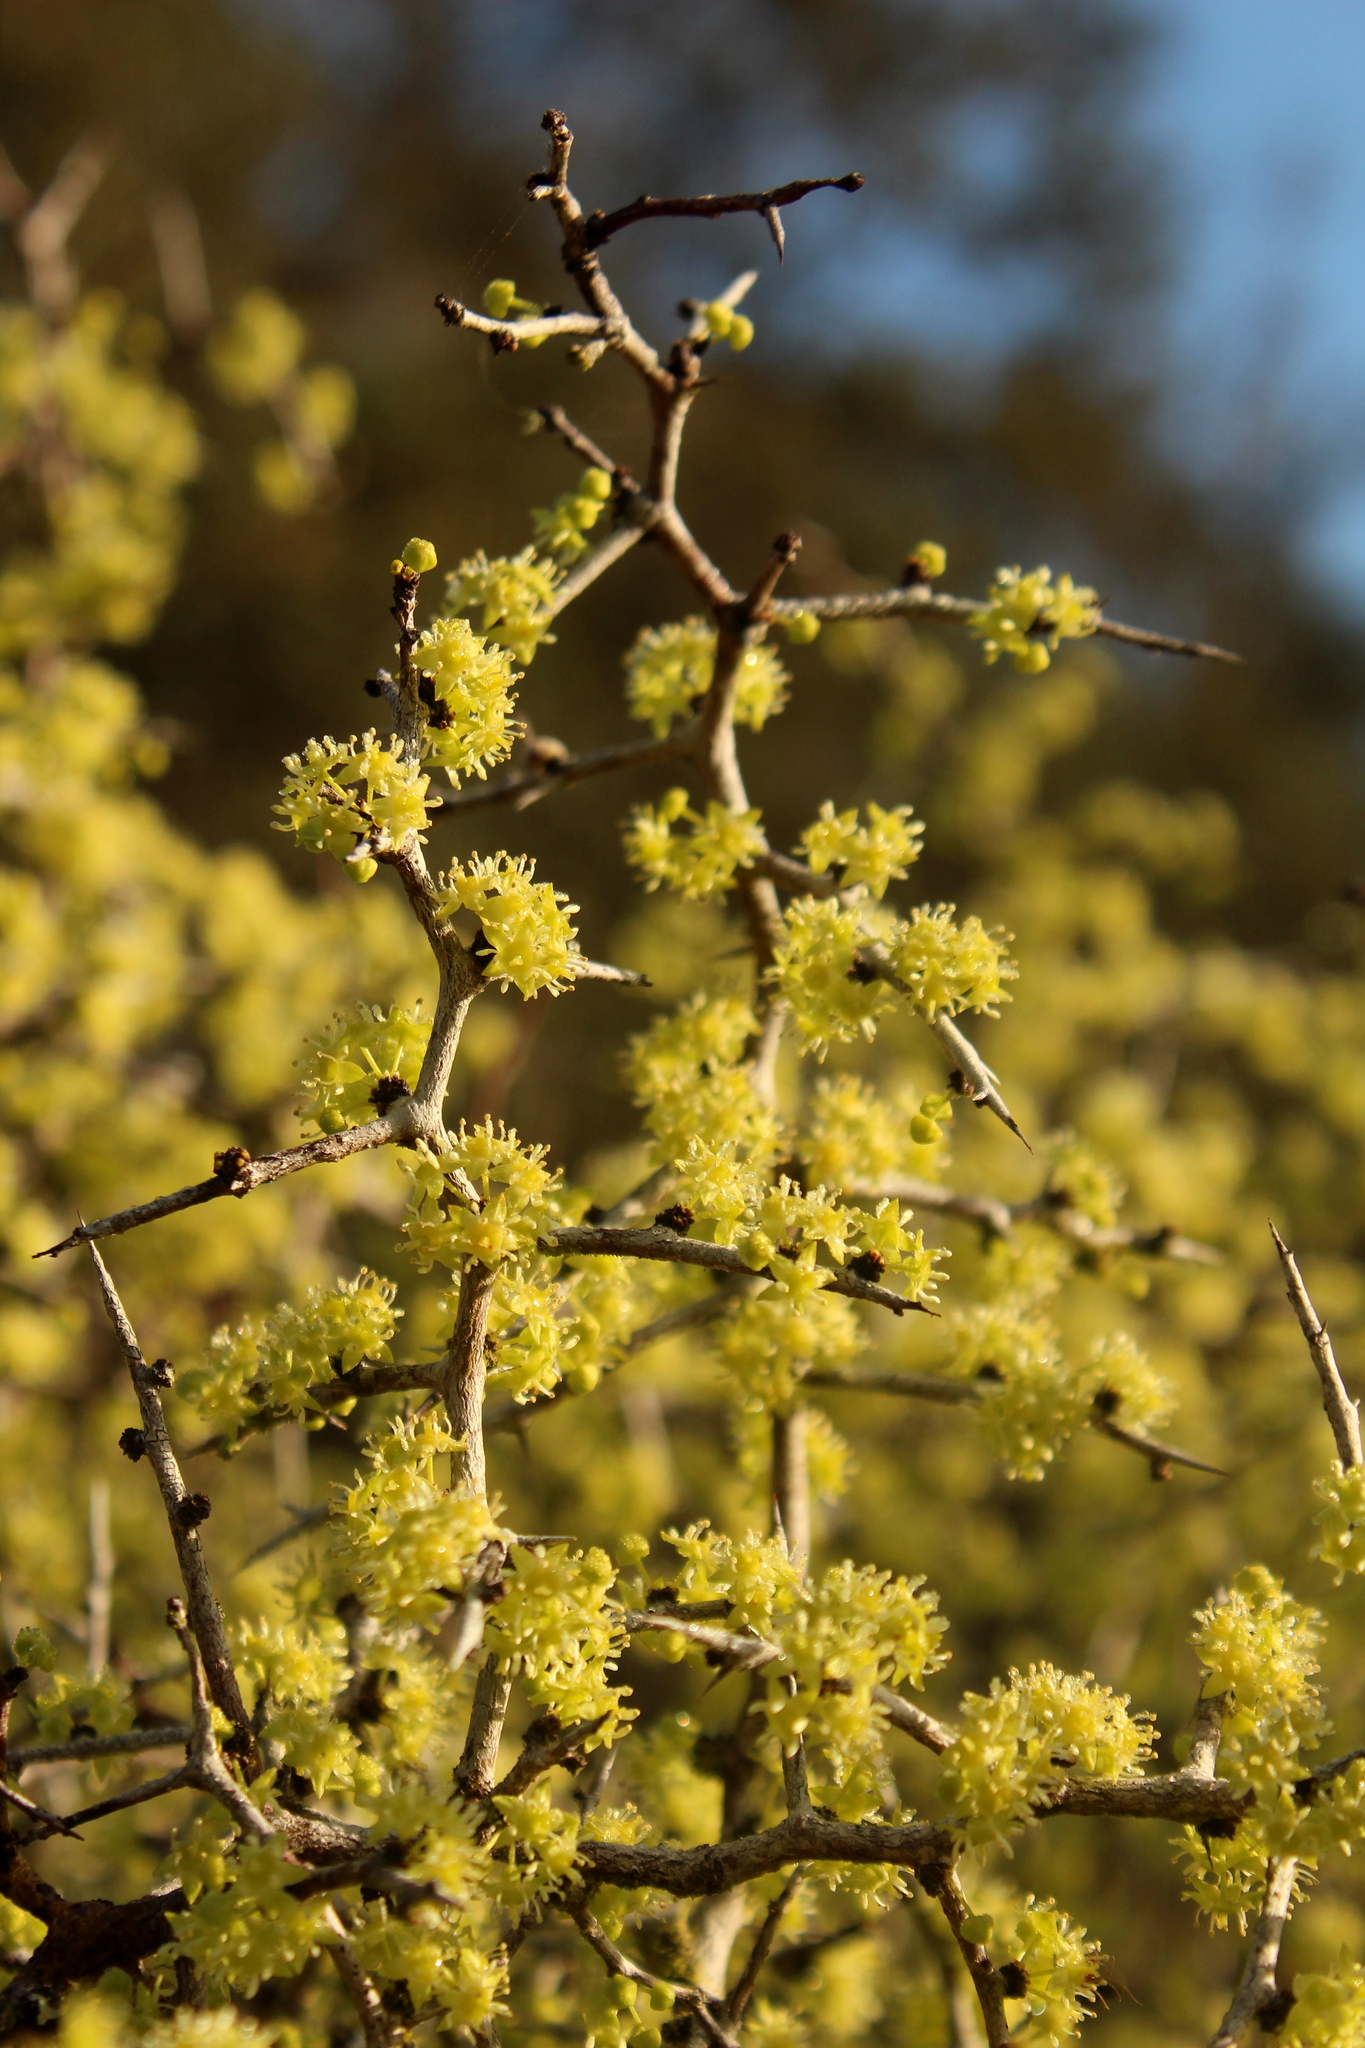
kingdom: Plantae
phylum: Tracheophyta
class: Magnoliopsida
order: Rosales
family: Rhamnaceae
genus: Pseudoziziphus
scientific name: Pseudoziziphus celata
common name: Florida ziziphus
